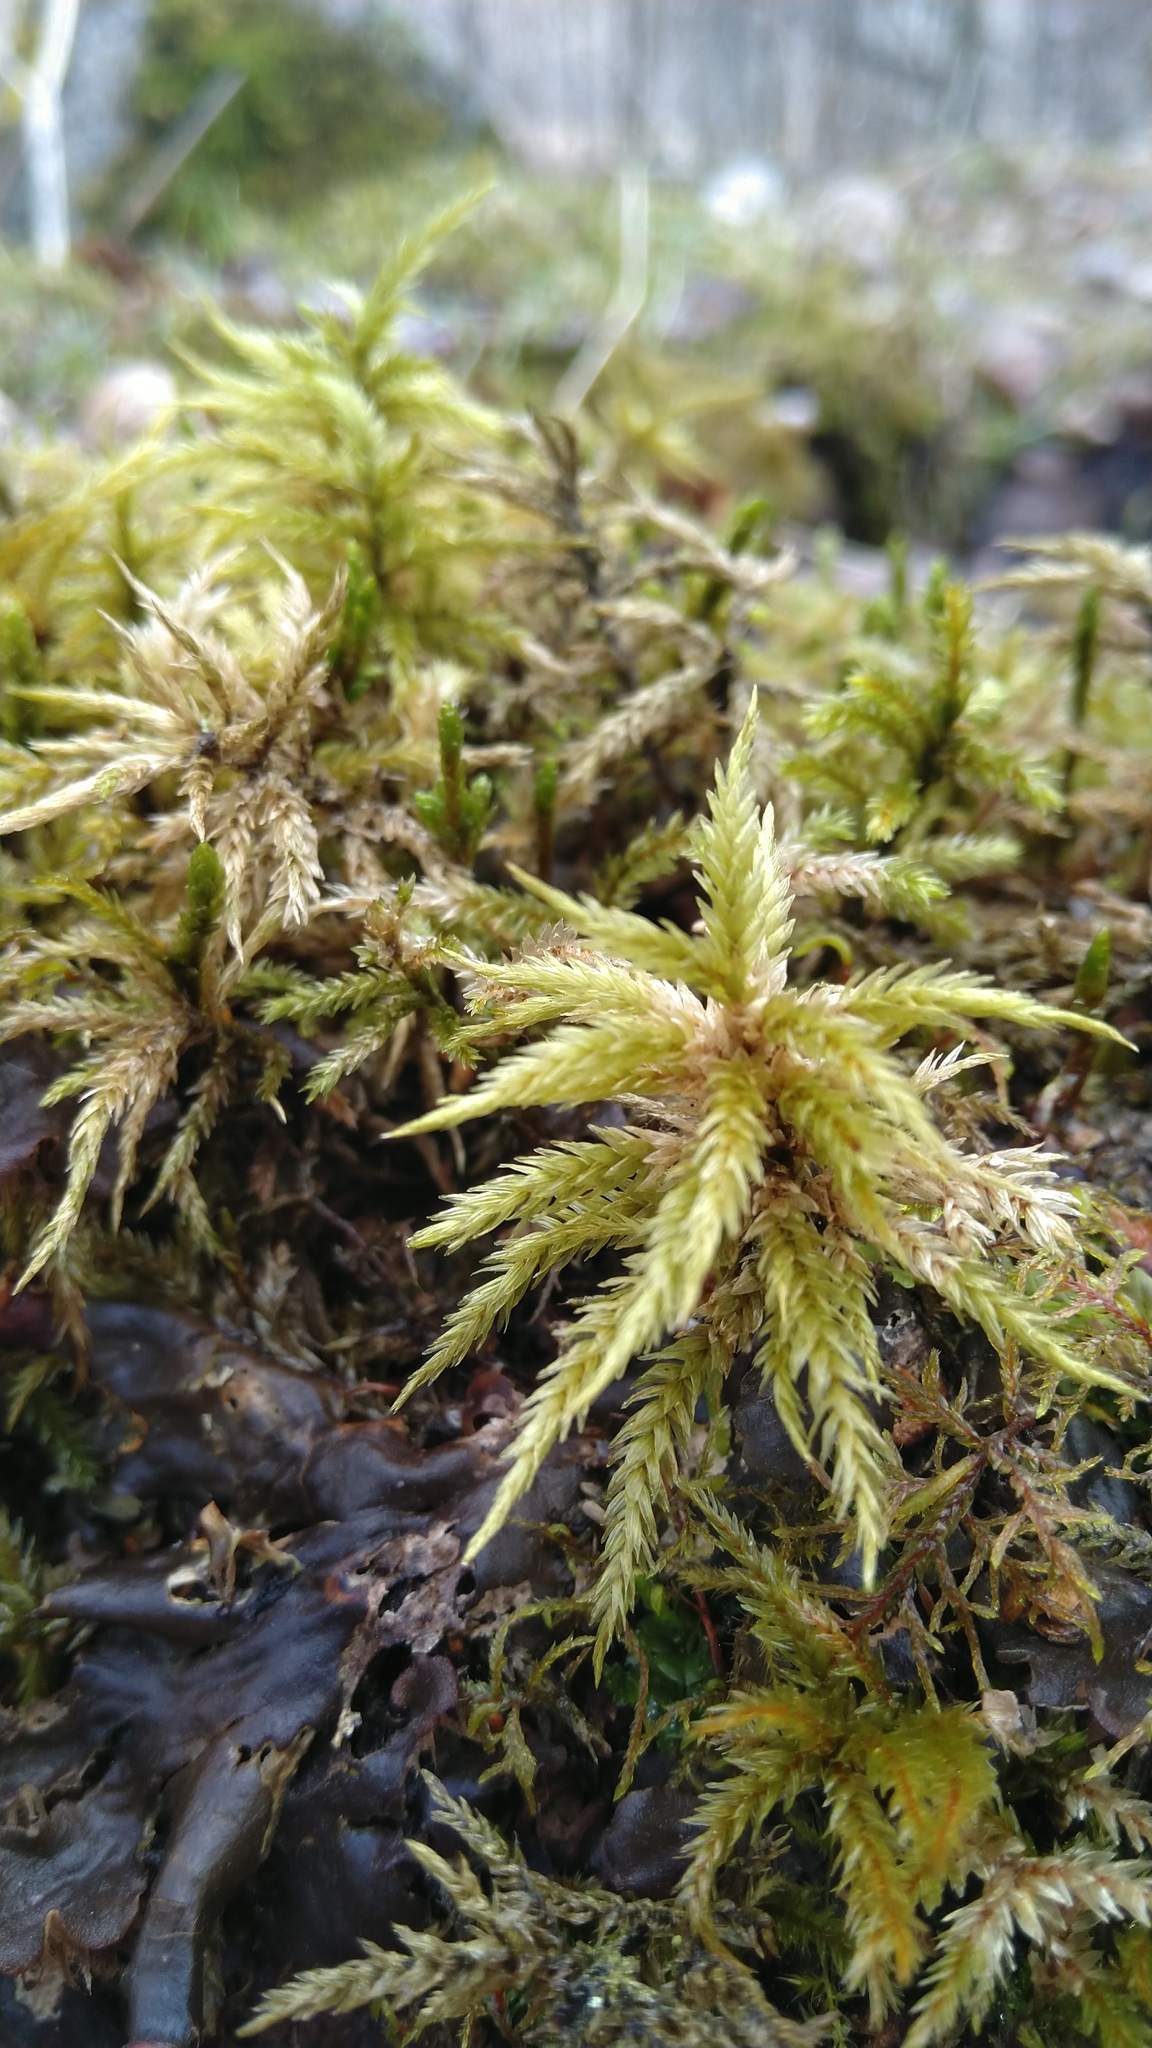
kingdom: Plantae
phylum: Bryophyta
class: Bryopsida
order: Hypnales
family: Climaciaceae
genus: Climacium
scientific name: Climacium dendroides
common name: Northern tree moss
